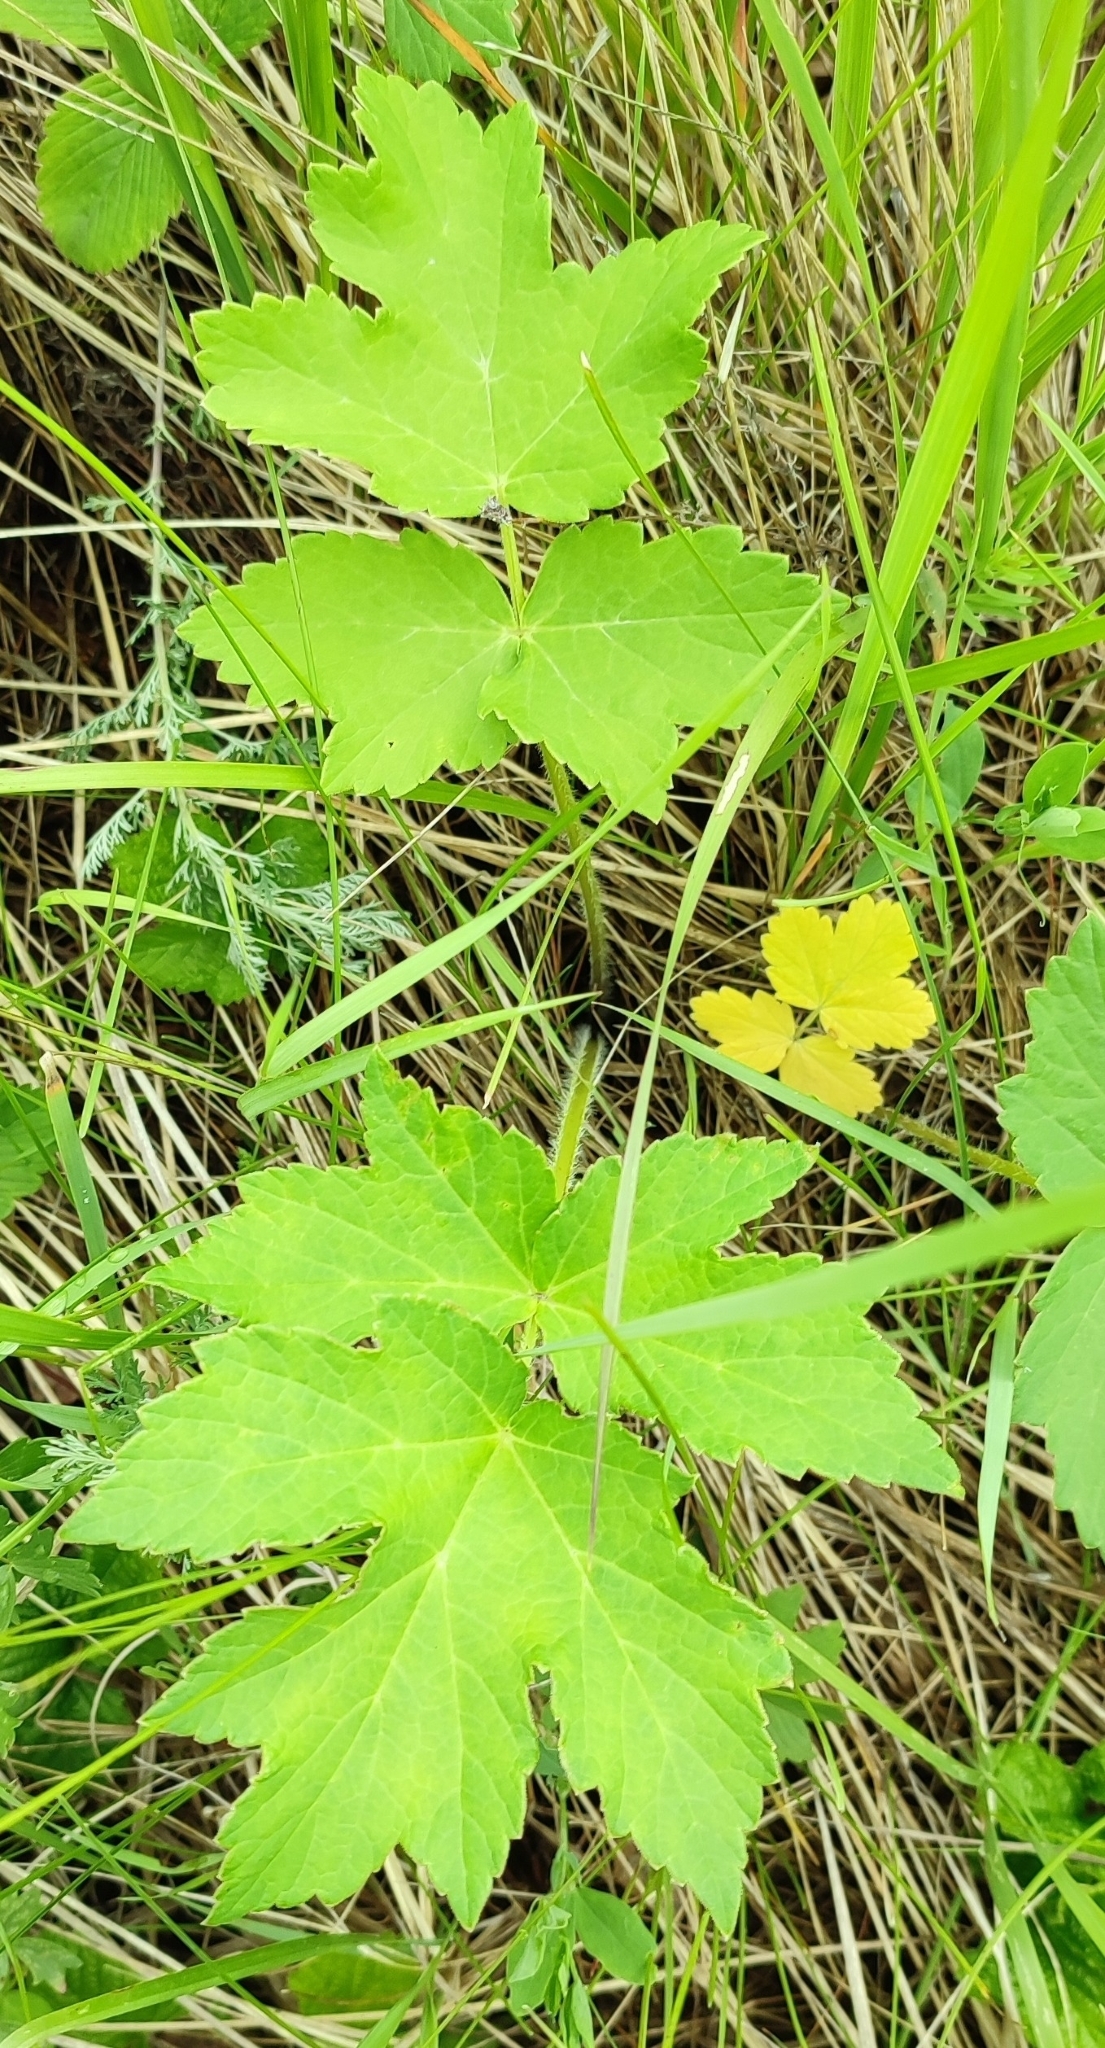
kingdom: Plantae
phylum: Tracheophyta
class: Magnoliopsida
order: Apiales
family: Apiaceae
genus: Heracleum
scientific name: Heracleum sphondylium
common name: Hogweed
